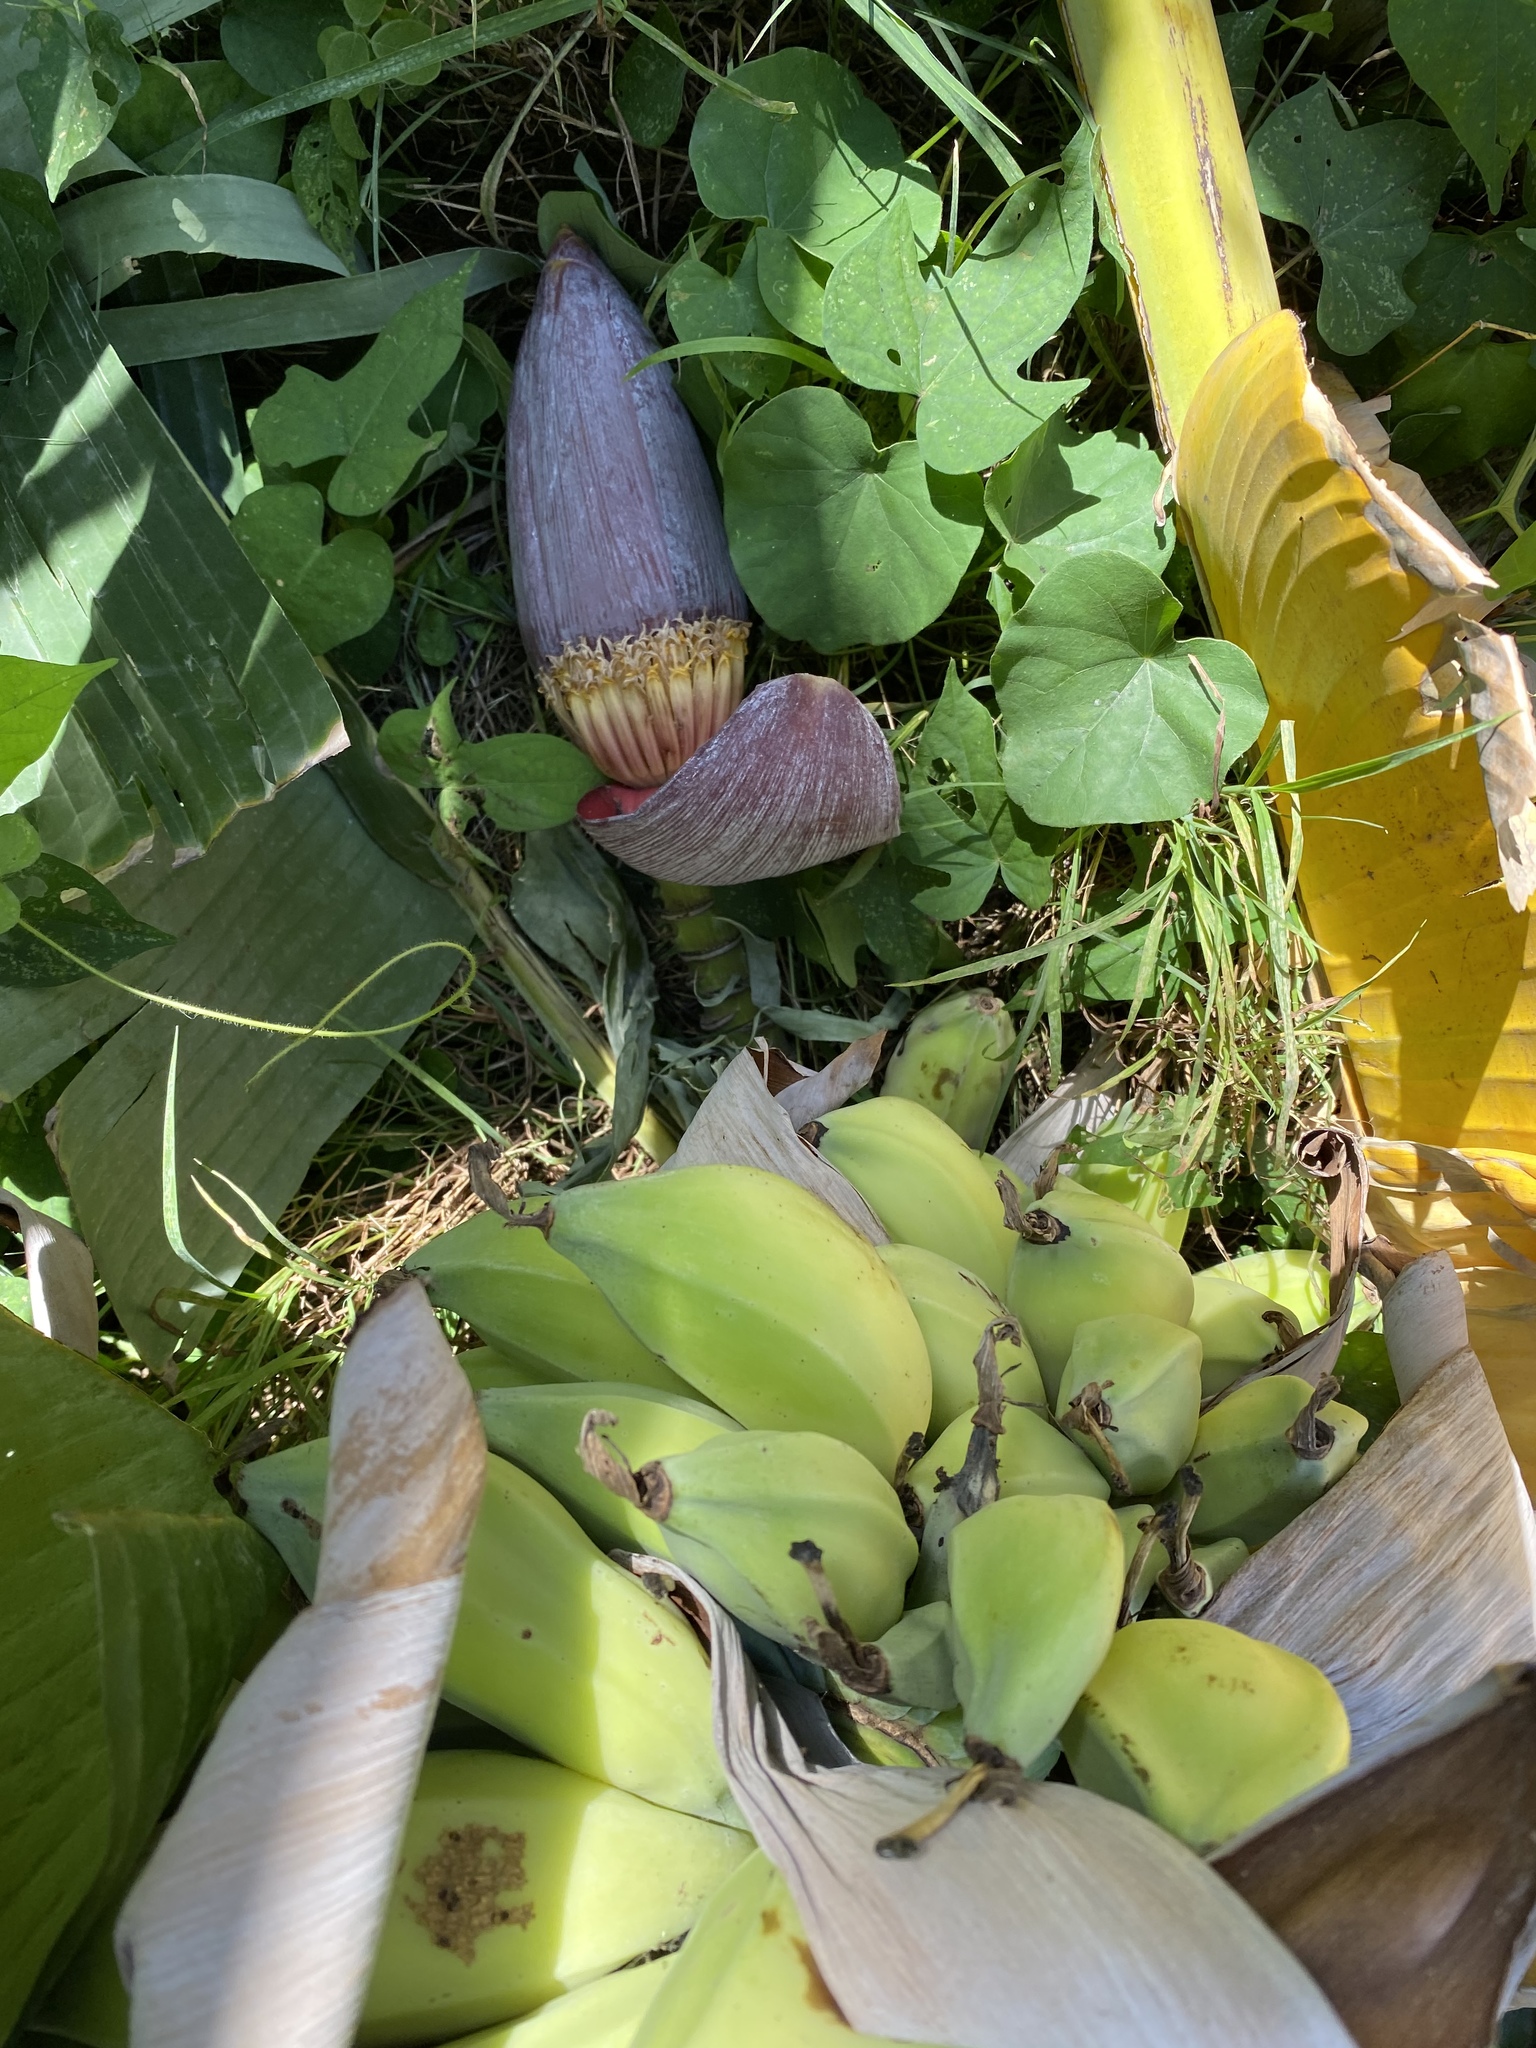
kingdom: Plantae
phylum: Tracheophyta
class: Liliopsida
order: Zingiberales
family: Musaceae
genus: Musa
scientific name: Musa balbisiana
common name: Plantain
